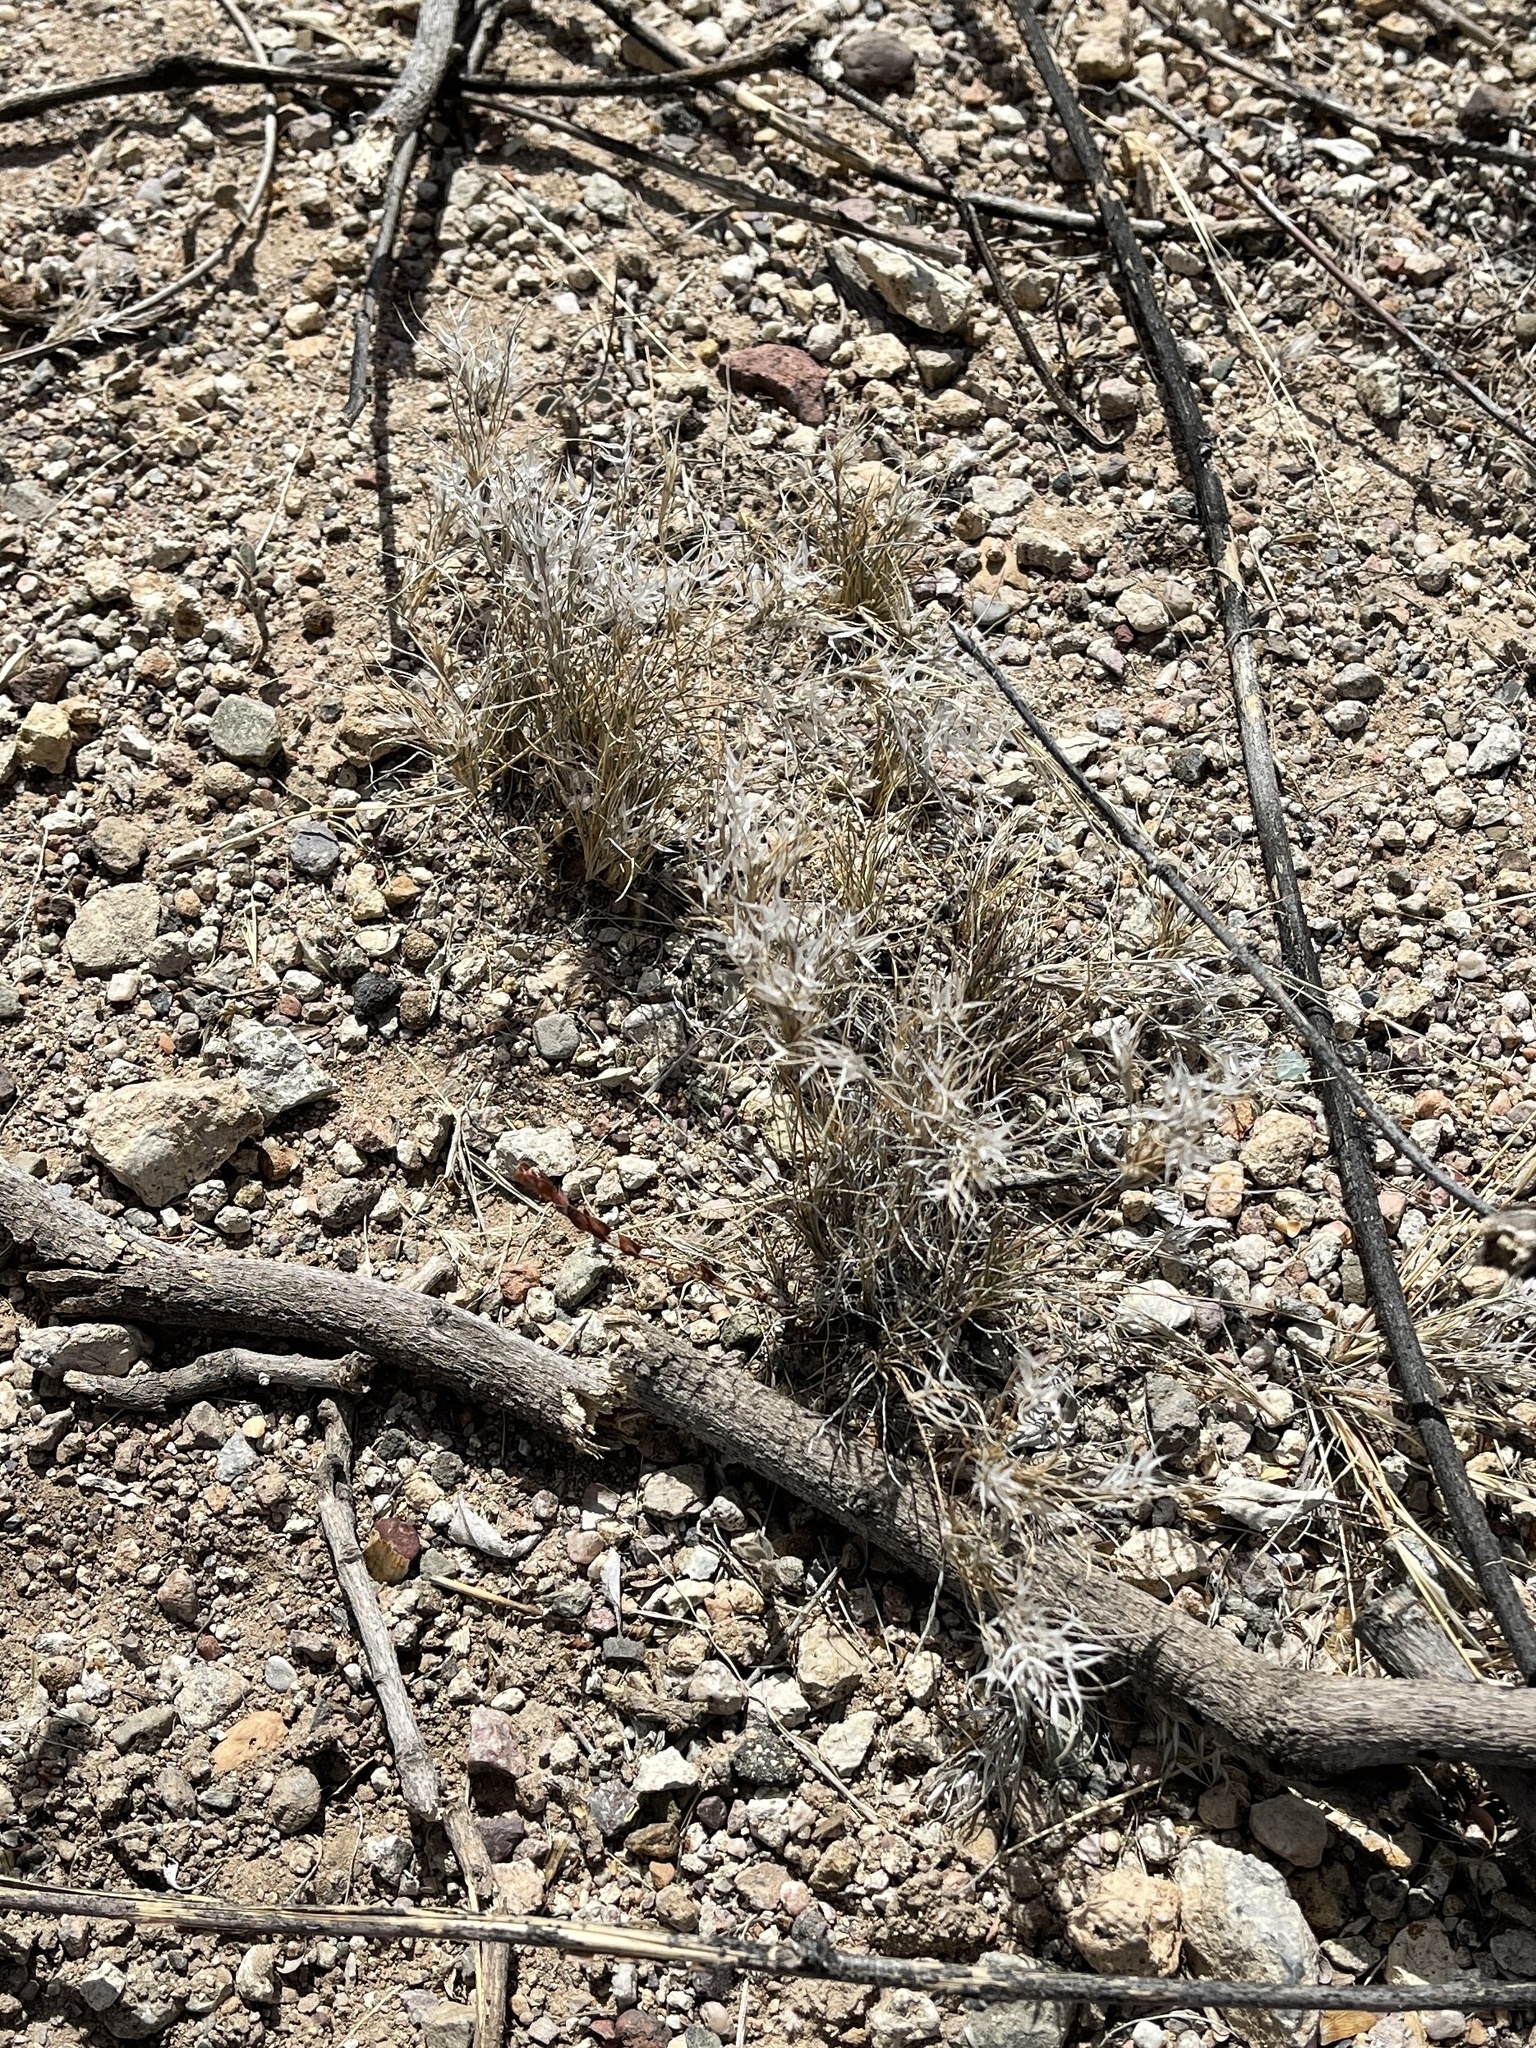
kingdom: Plantae
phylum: Tracheophyta
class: Liliopsida
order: Poales
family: Poaceae
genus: Dasyochloa
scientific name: Dasyochloa pulchella
